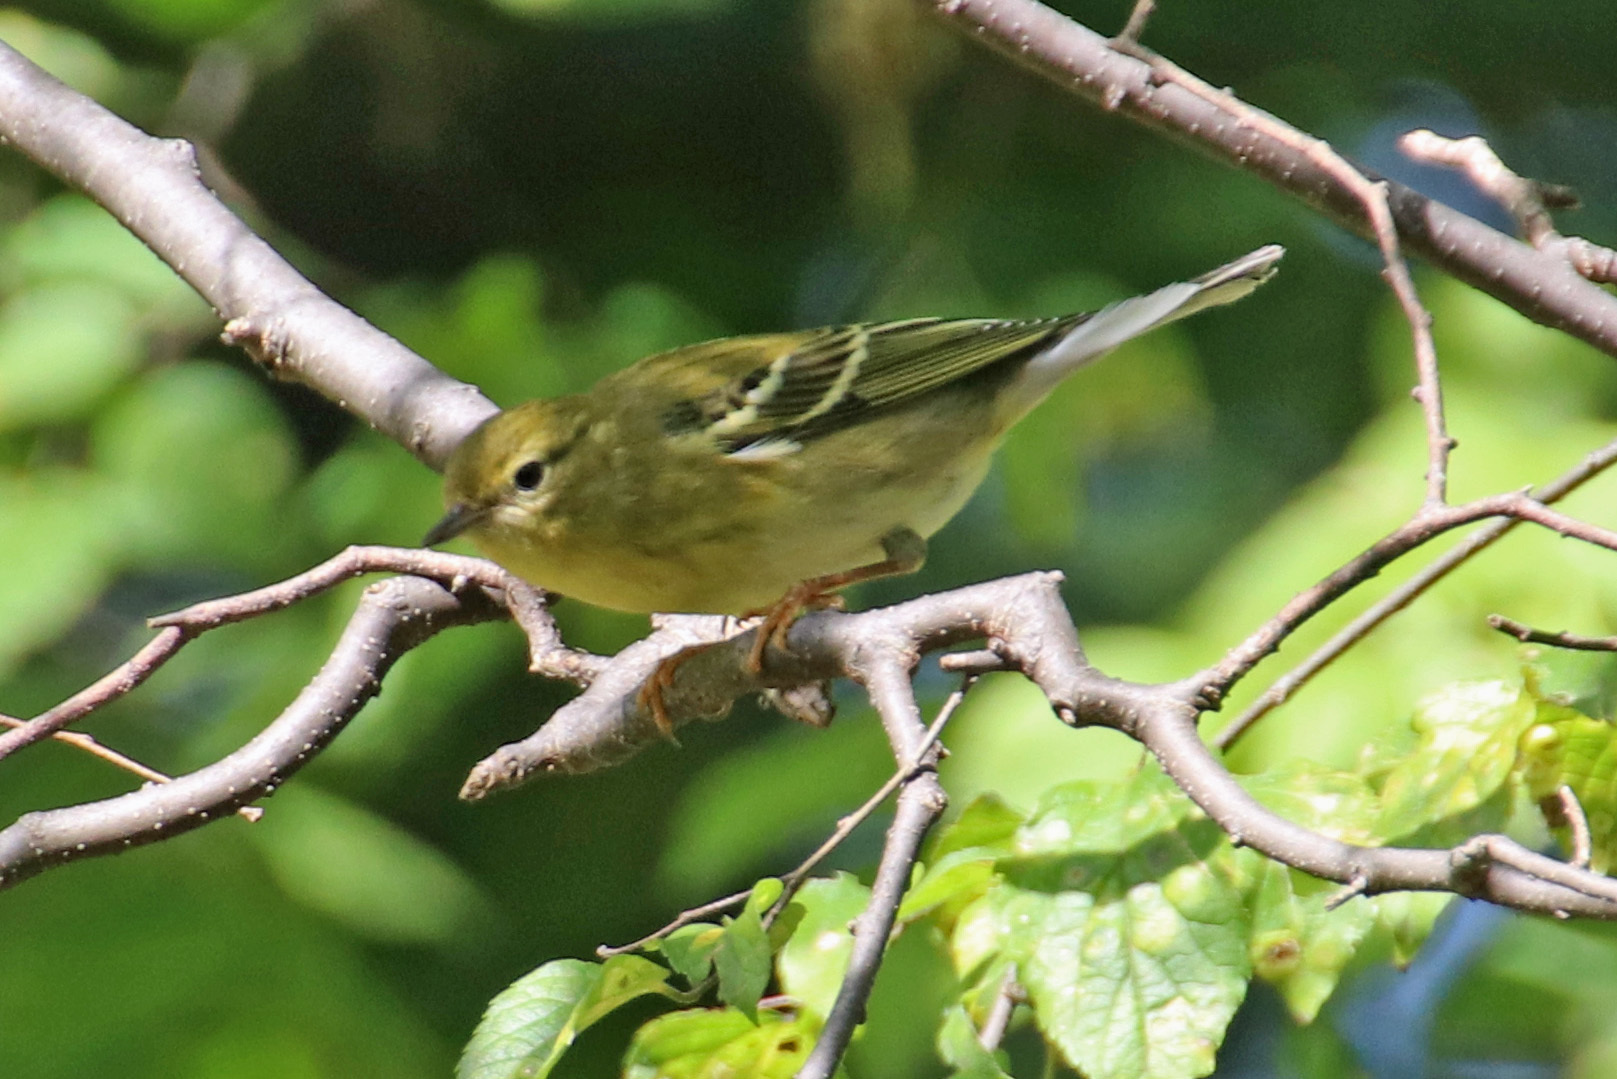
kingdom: Animalia
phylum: Chordata
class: Aves
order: Passeriformes
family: Parulidae
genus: Setophaga
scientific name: Setophaga striata
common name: Blackpoll warbler
